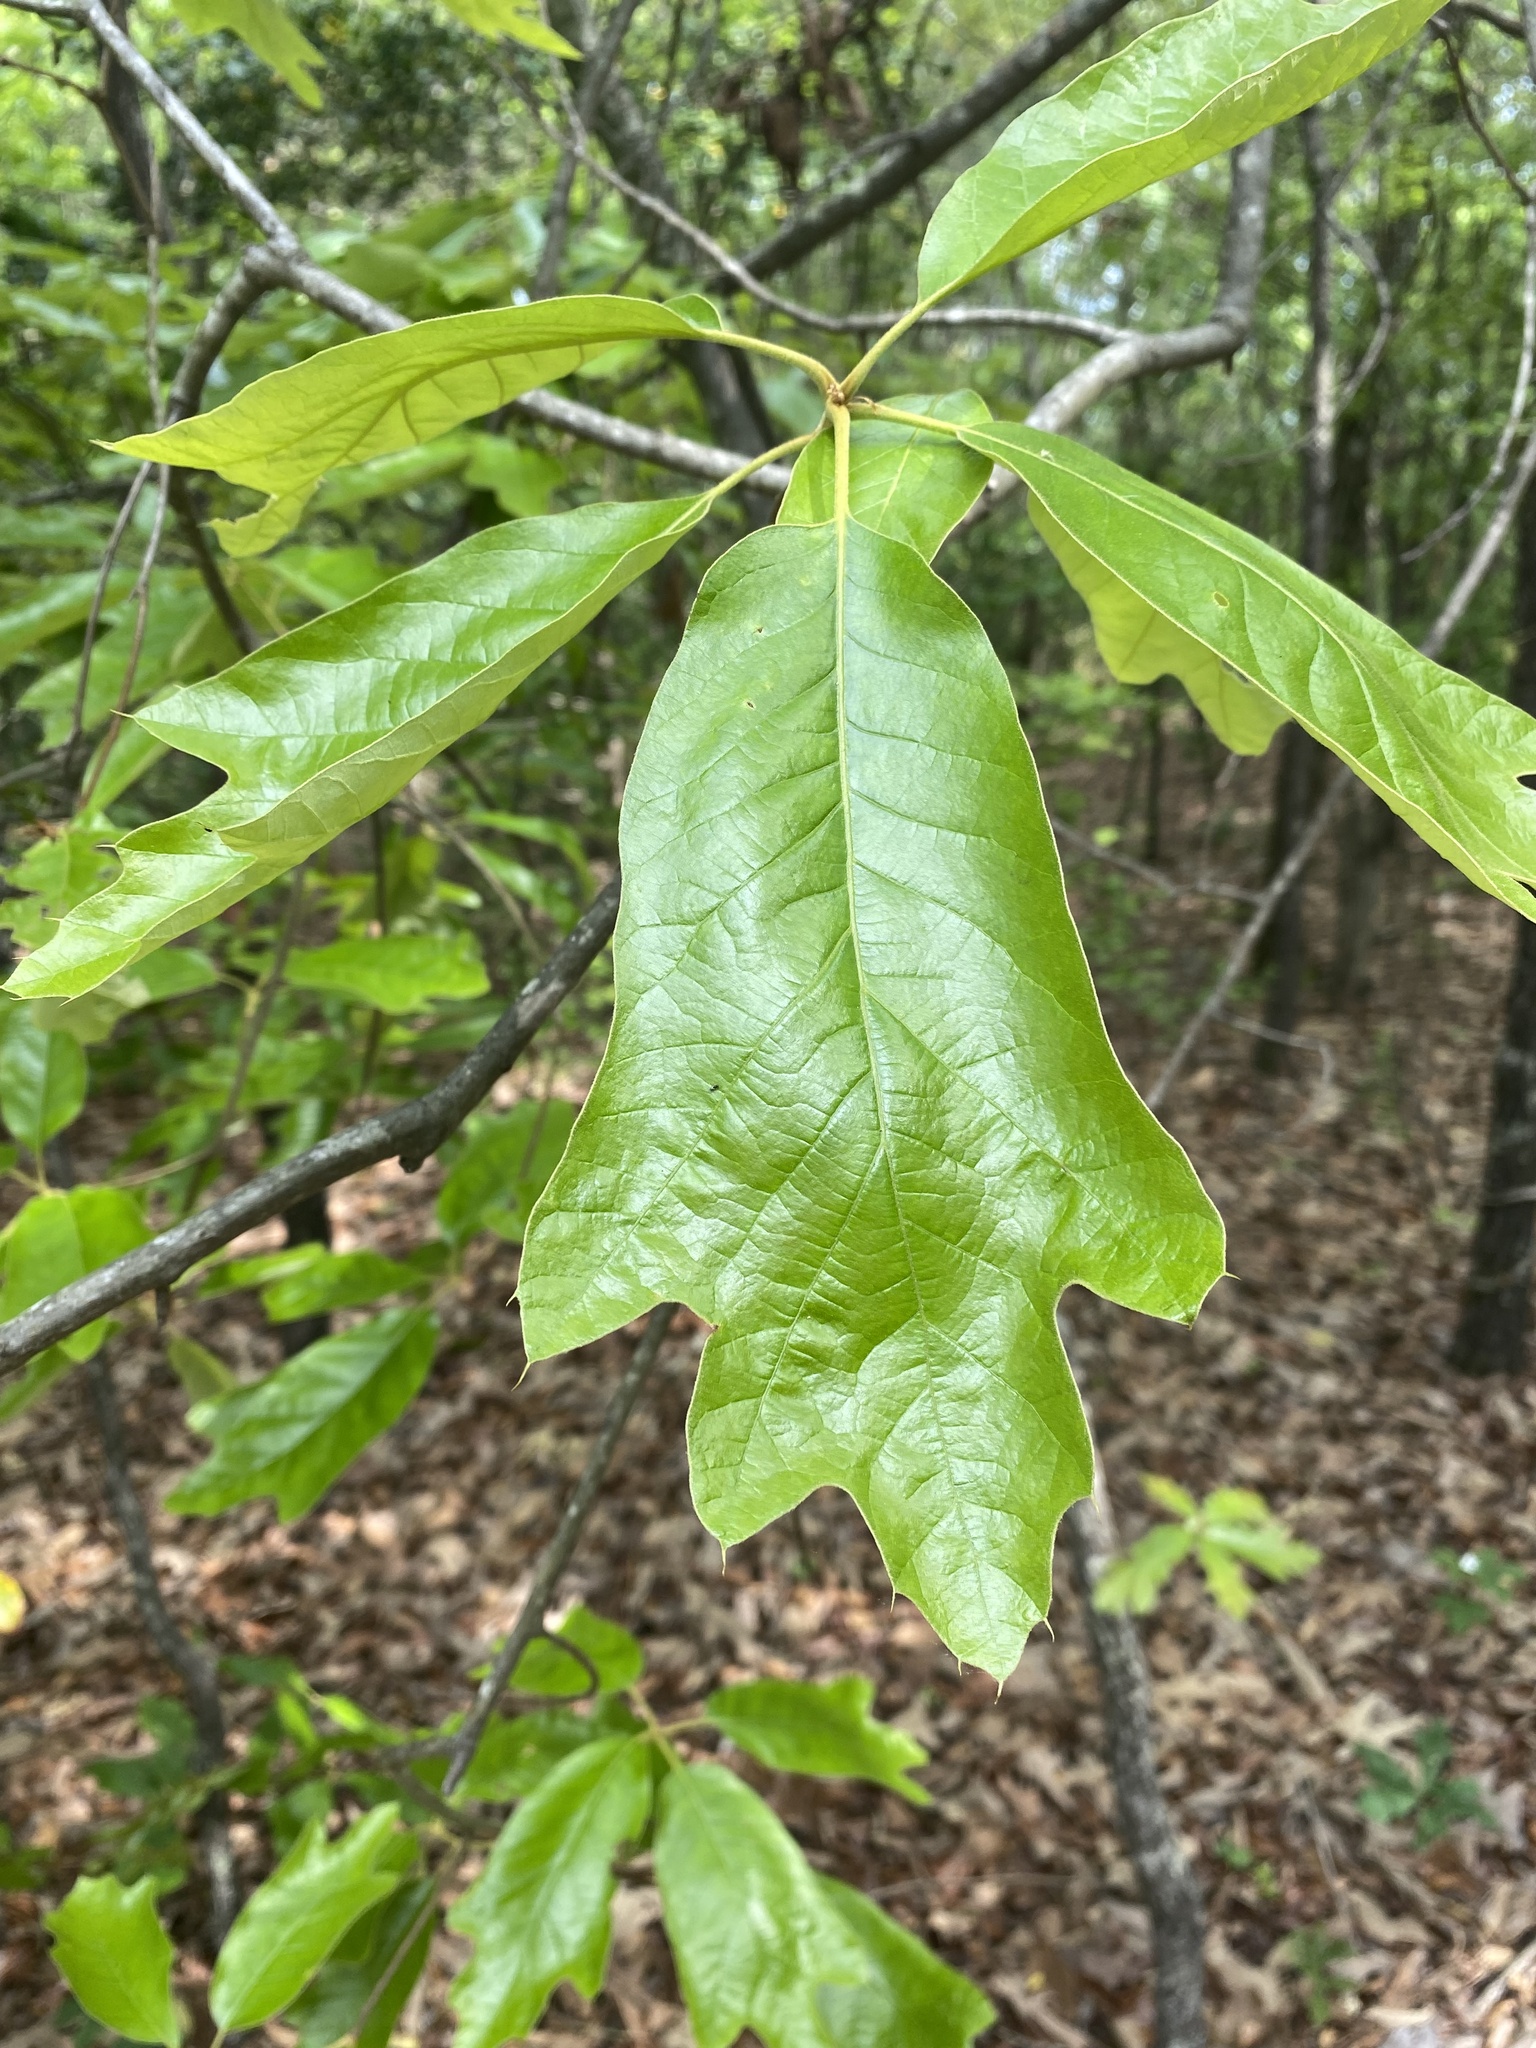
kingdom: Plantae
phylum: Tracheophyta
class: Magnoliopsida
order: Fagales
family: Fagaceae
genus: Quercus
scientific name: Quercus falcata
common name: Southern red oak
